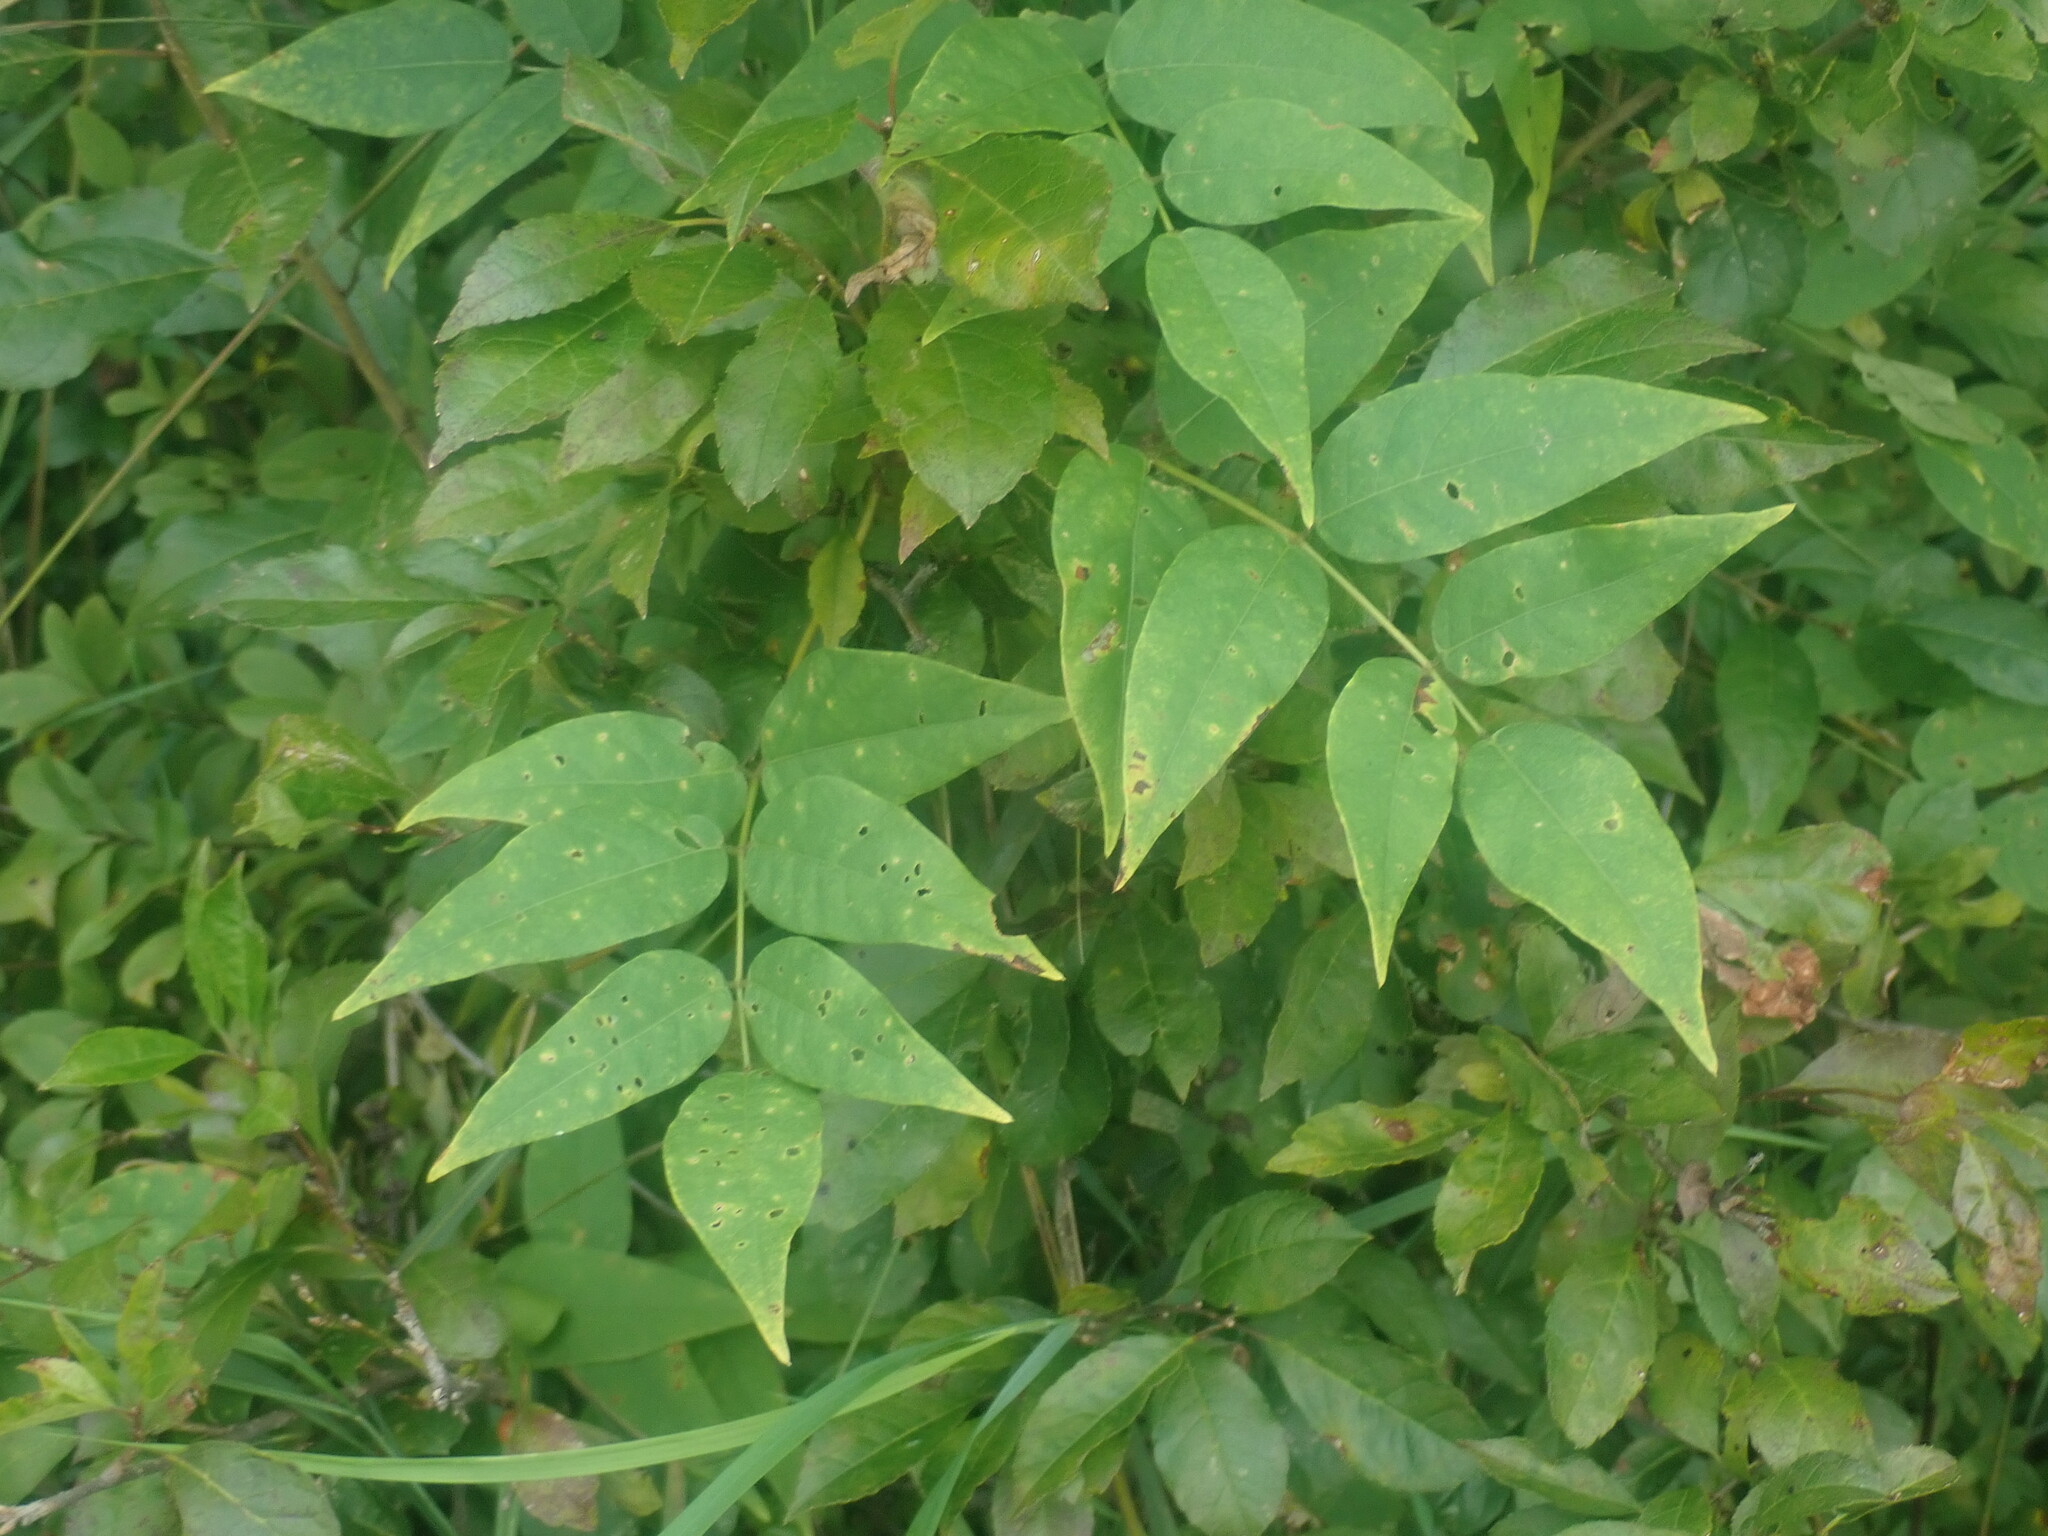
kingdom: Plantae
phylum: Tracheophyta
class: Magnoliopsida
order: Fabales
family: Fabaceae
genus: Apios
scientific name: Apios americana
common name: American potato-bean
